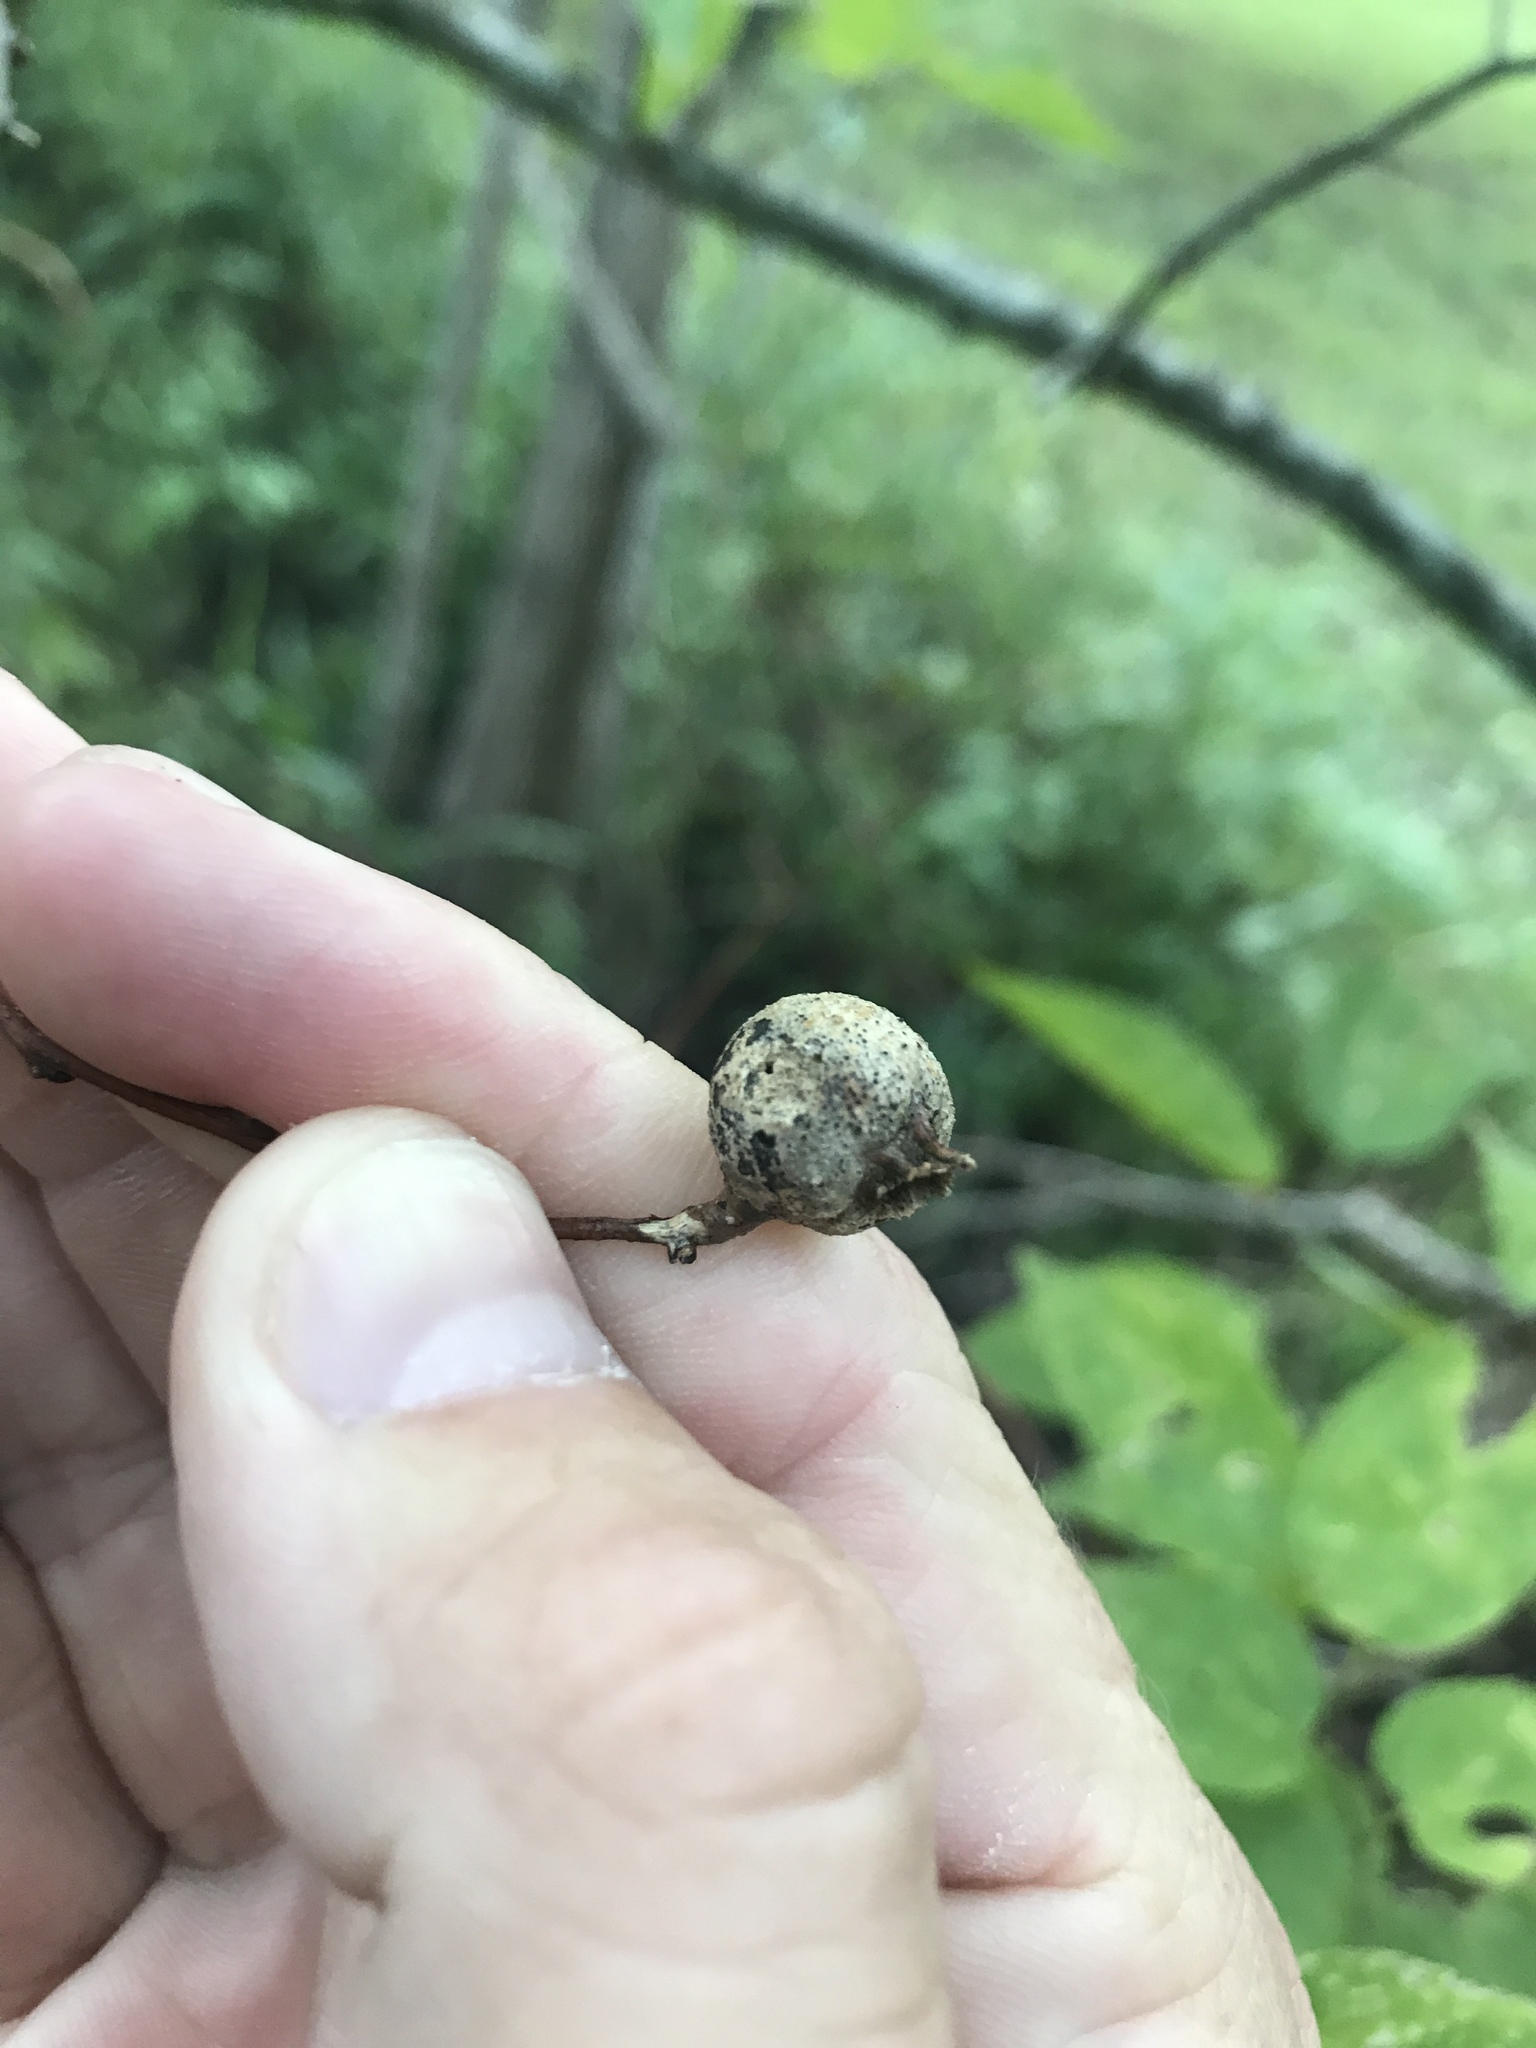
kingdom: Animalia
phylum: Arthropoda
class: Insecta
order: Hemiptera
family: Aphalaridae
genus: Pachypsylla
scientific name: Pachypsylla venusta
